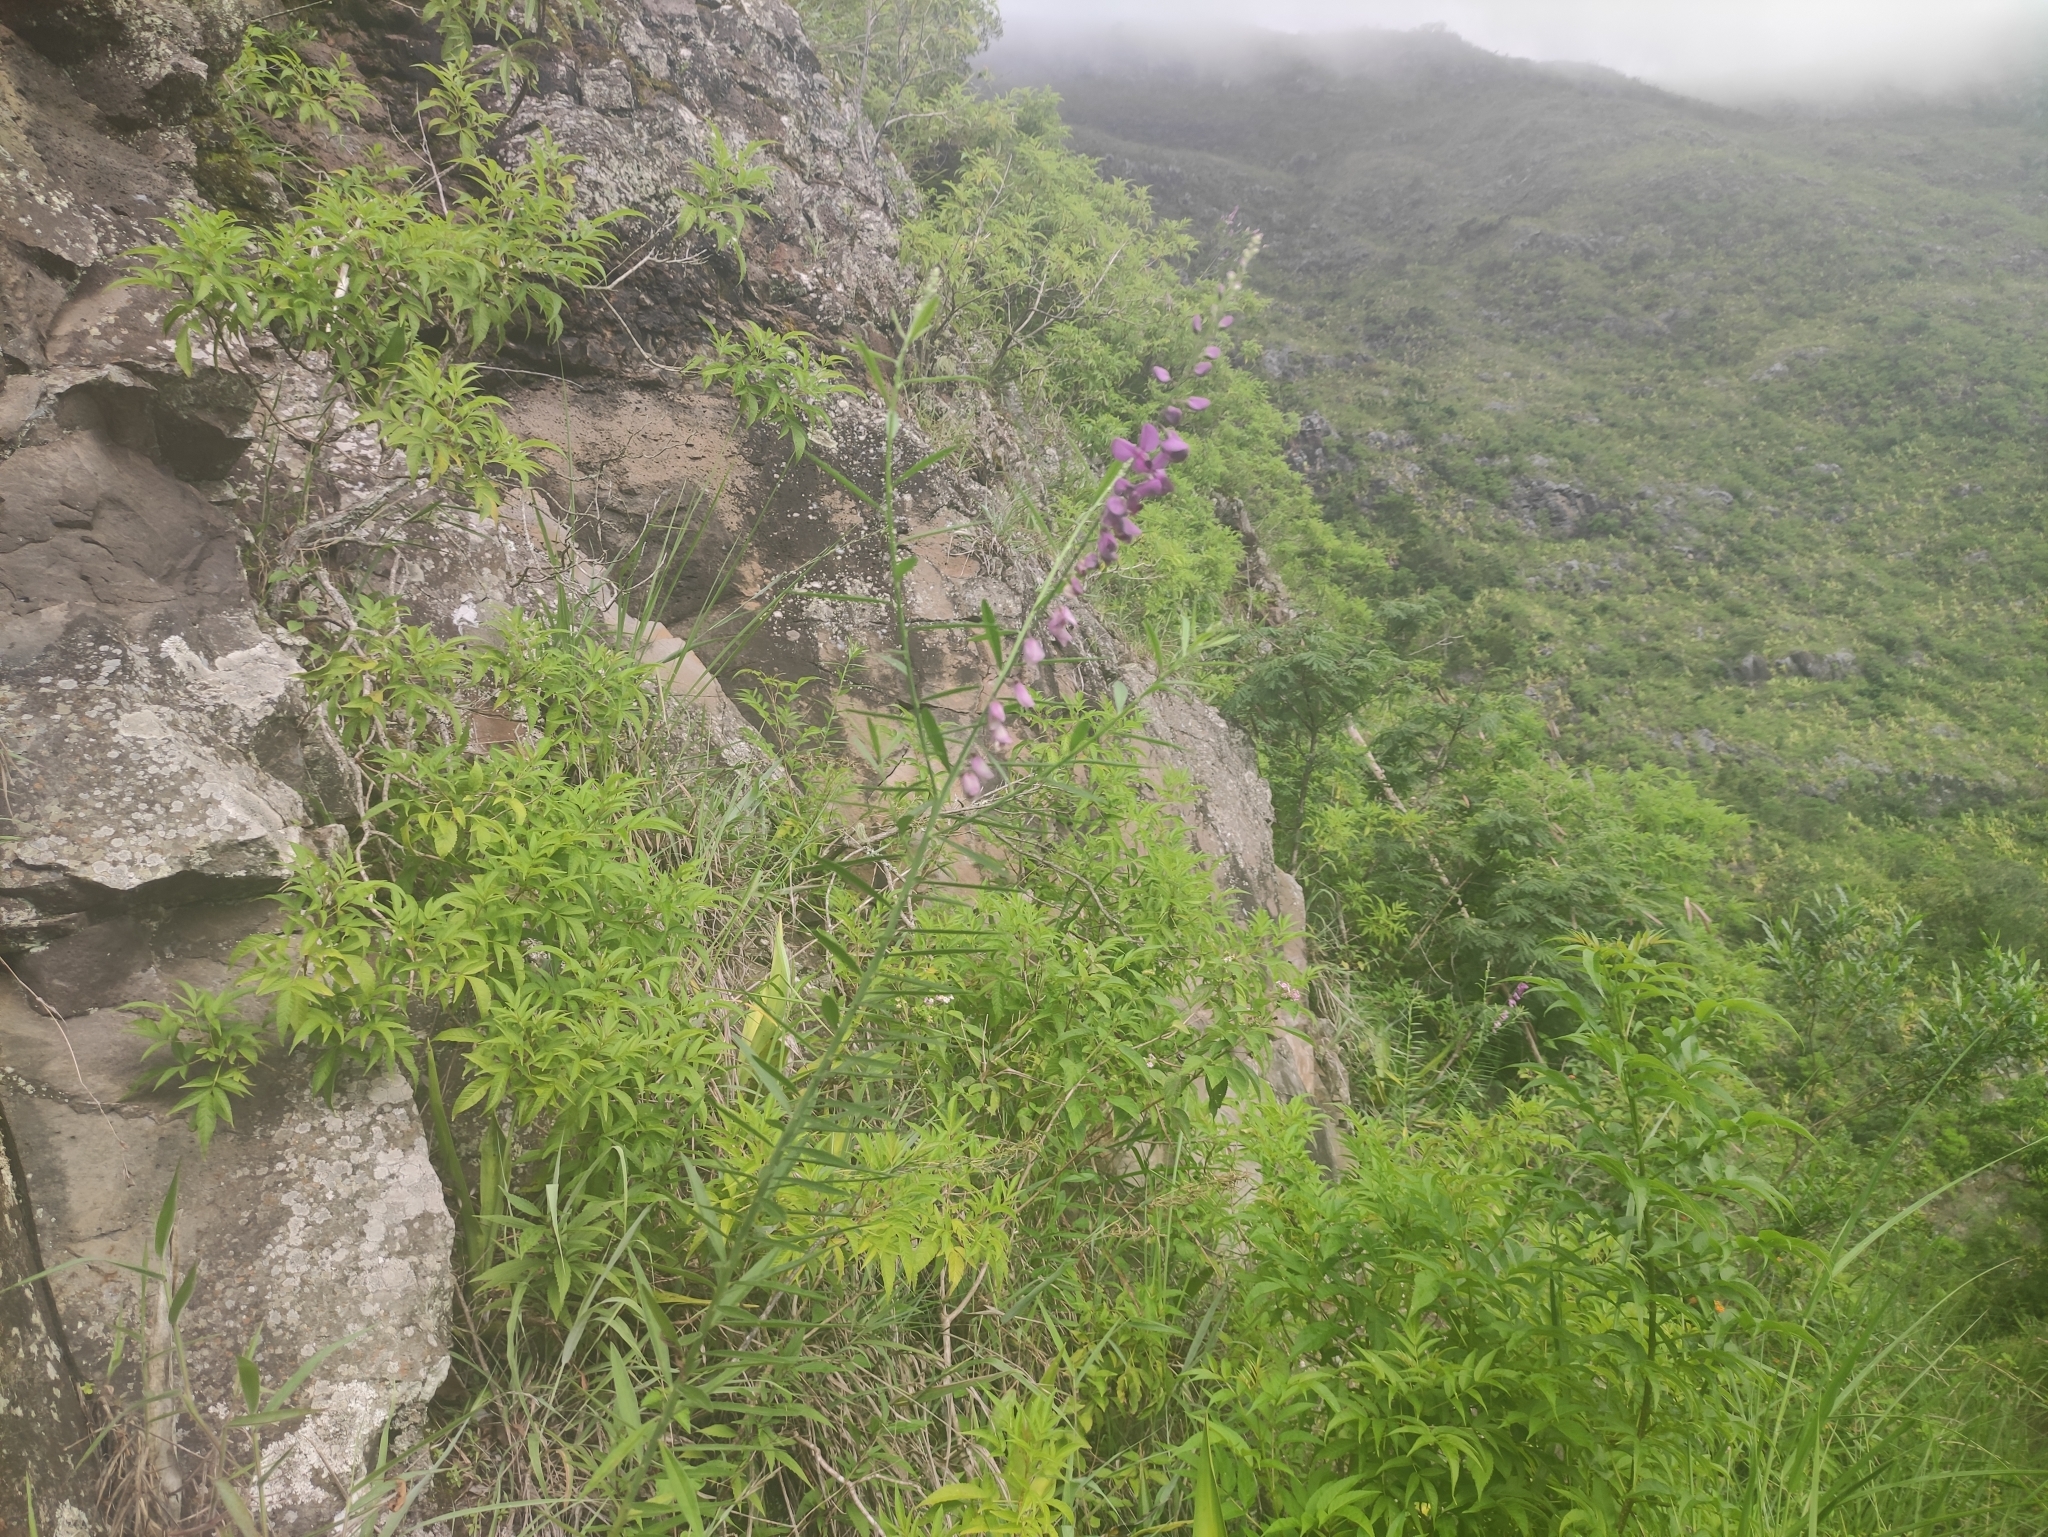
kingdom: Plantae
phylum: Tracheophyta
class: Magnoliopsida
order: Fabales
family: Polygalaceae
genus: Polygala
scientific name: Polygala virgata
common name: Milkwort
